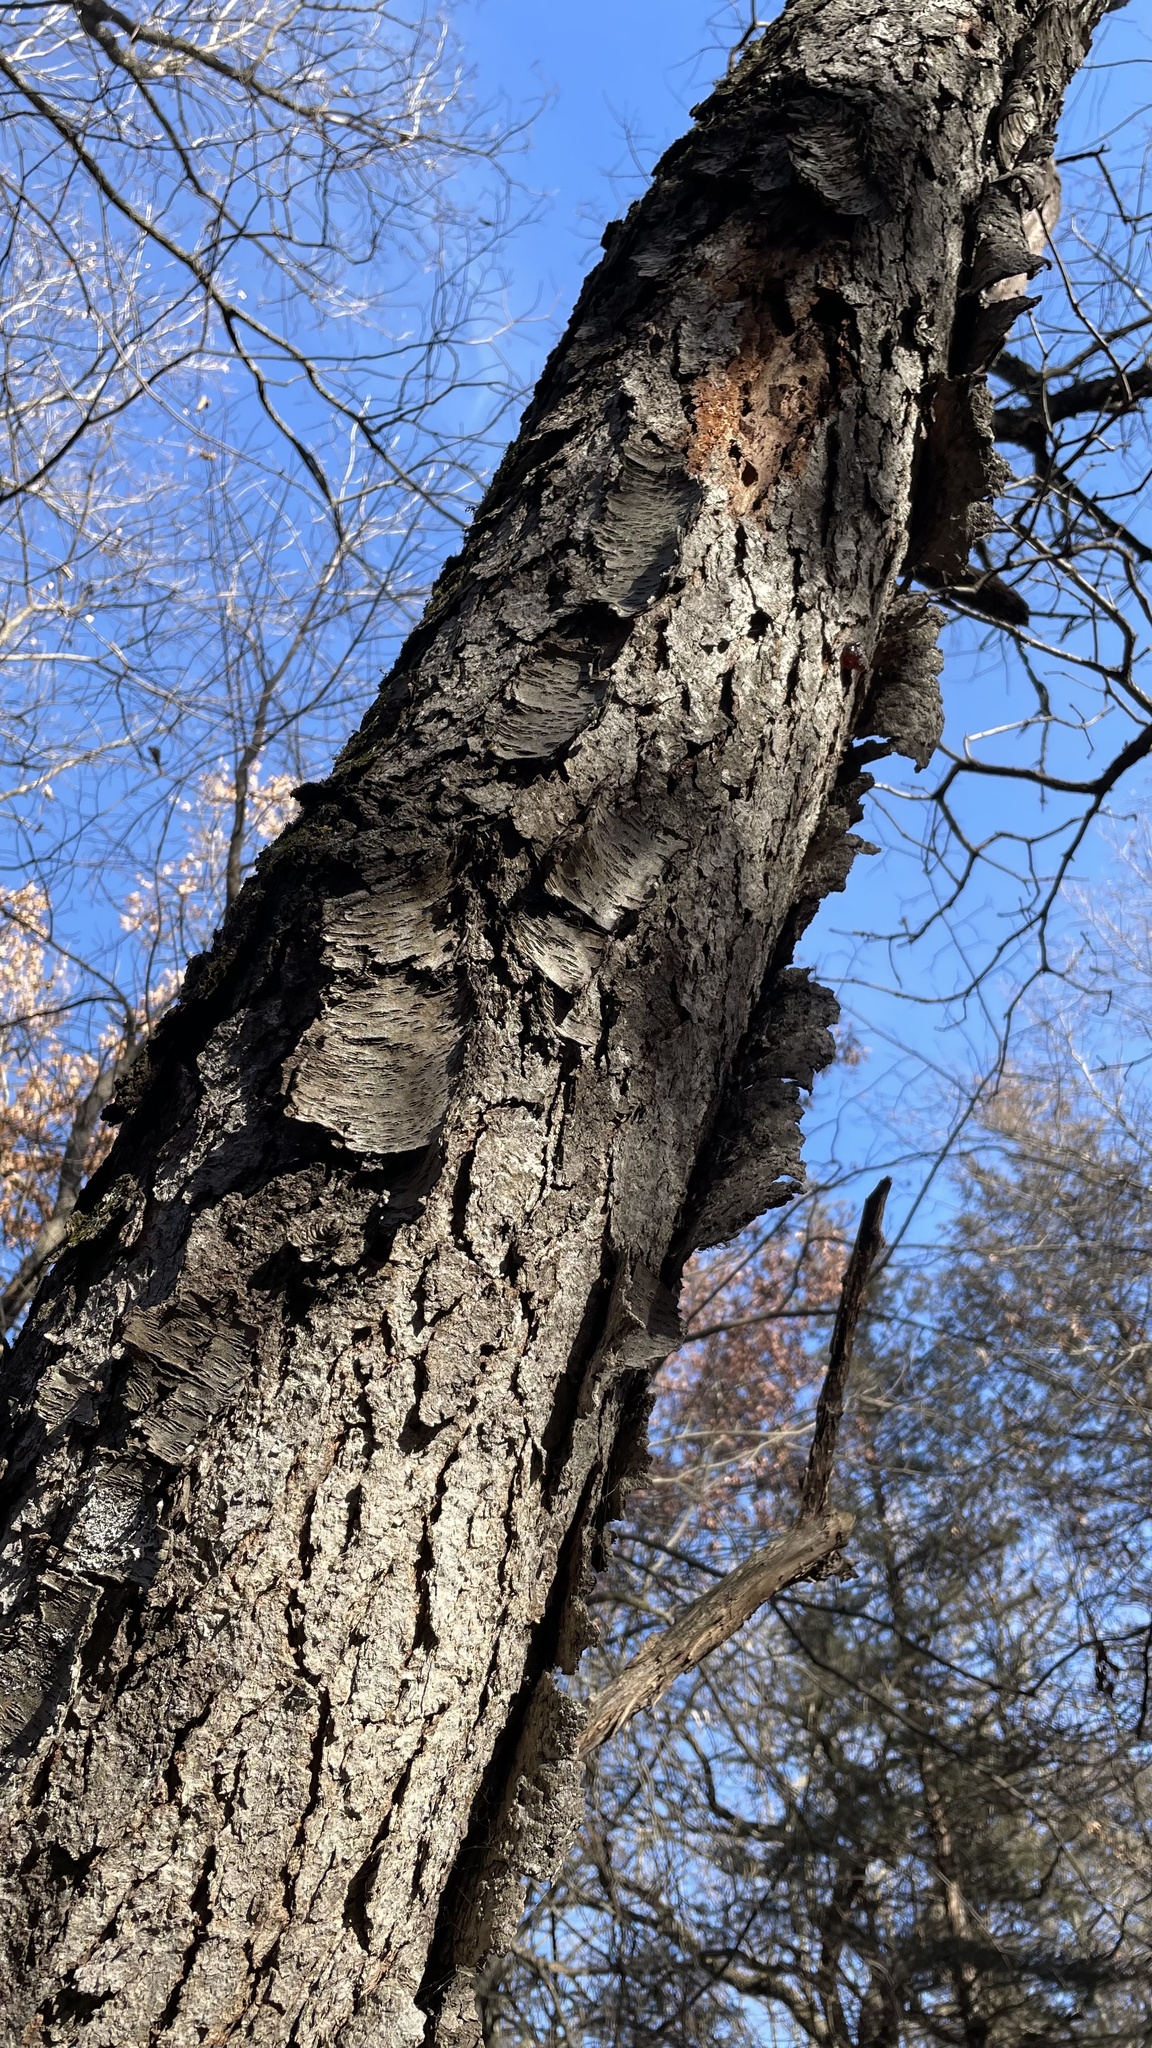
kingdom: Plantae
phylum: Tracheophyta
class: Magnoliopsida
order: Rosales
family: Rosaceae
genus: Prunus
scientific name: Prunus serotina
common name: Black cherry
